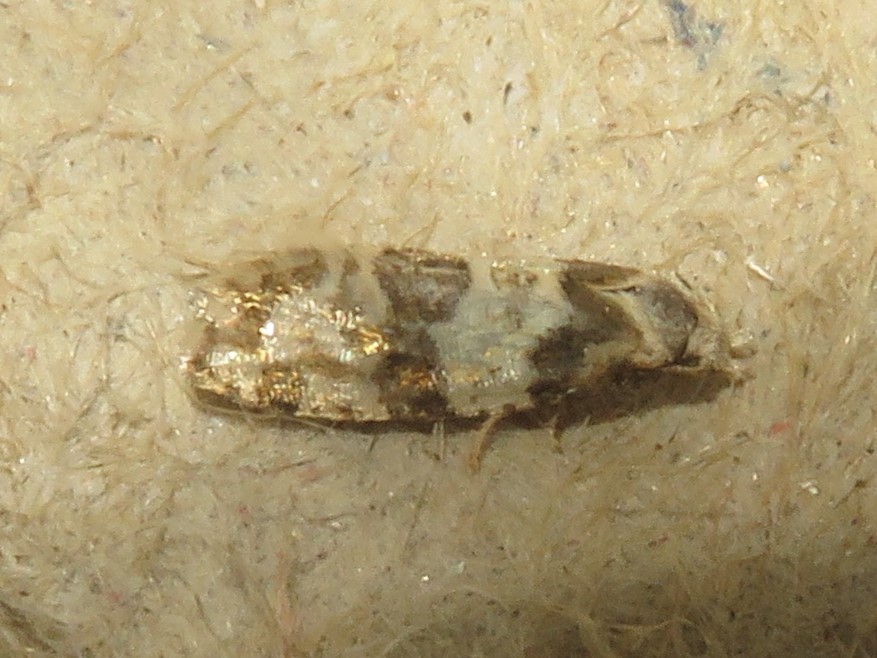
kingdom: Animalia
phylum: Arthropoda
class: Insecta
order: Lepidoptera
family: Tortricidae
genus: Aethes
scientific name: Aethes argentilimitana
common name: Silver-bordered aethes
